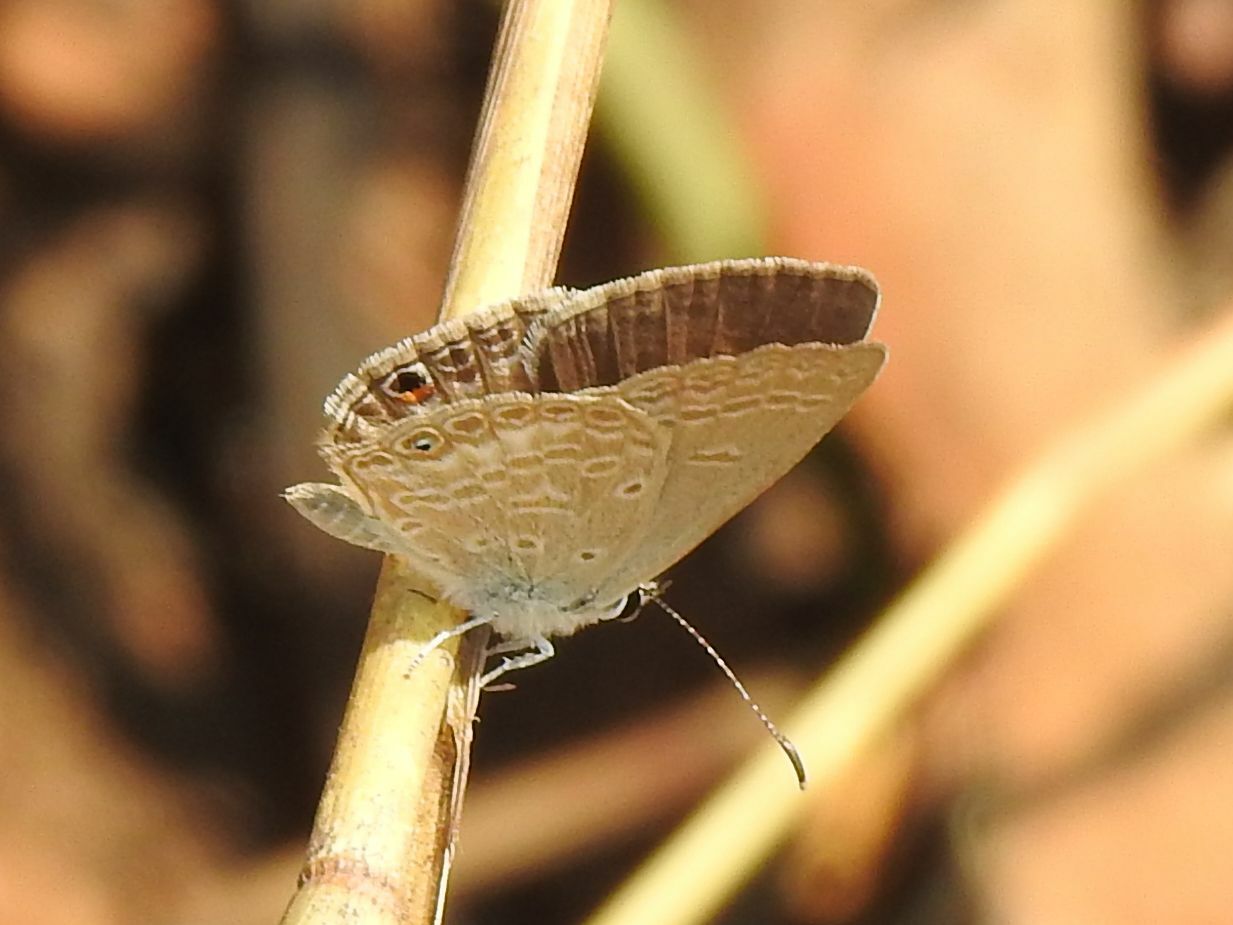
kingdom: Animalia
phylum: Arthropoda
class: Insecta
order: Lepidoptera
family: Lycaenidae
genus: Euchrysops
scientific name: Euchrysops malathana
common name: Common smoky blue
